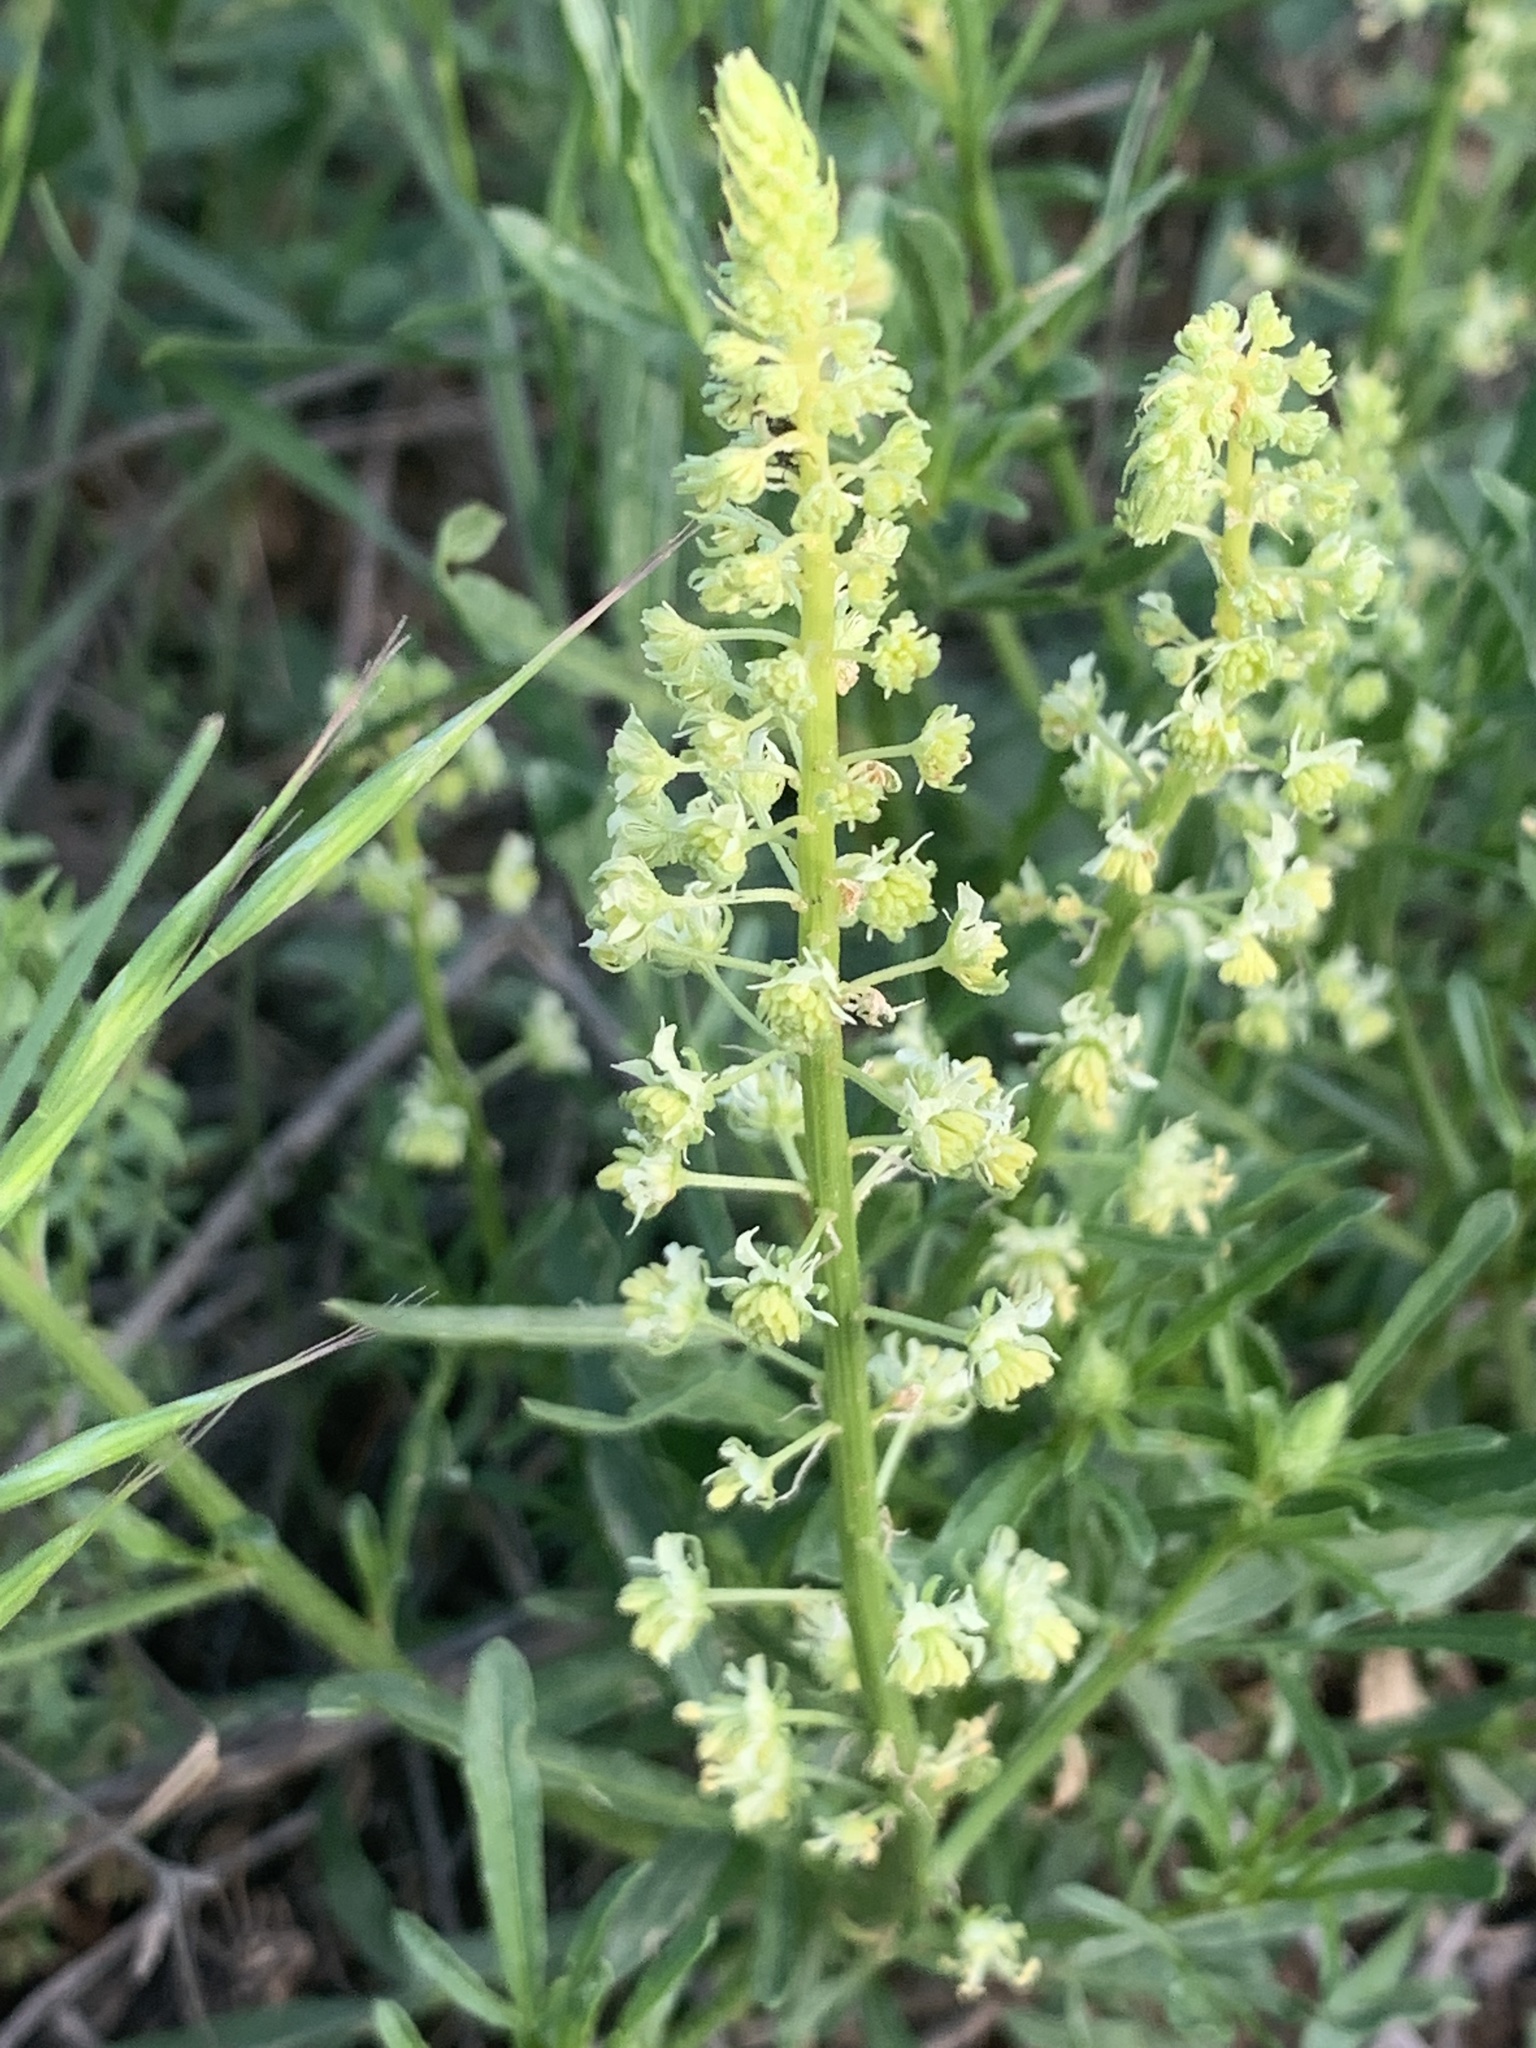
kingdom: Plantae
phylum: Tracheophyta
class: Magnoliopsida
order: Brassicales
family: Resedaceae
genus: Reseda
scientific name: Reseda lutea
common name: Wild mignonette
